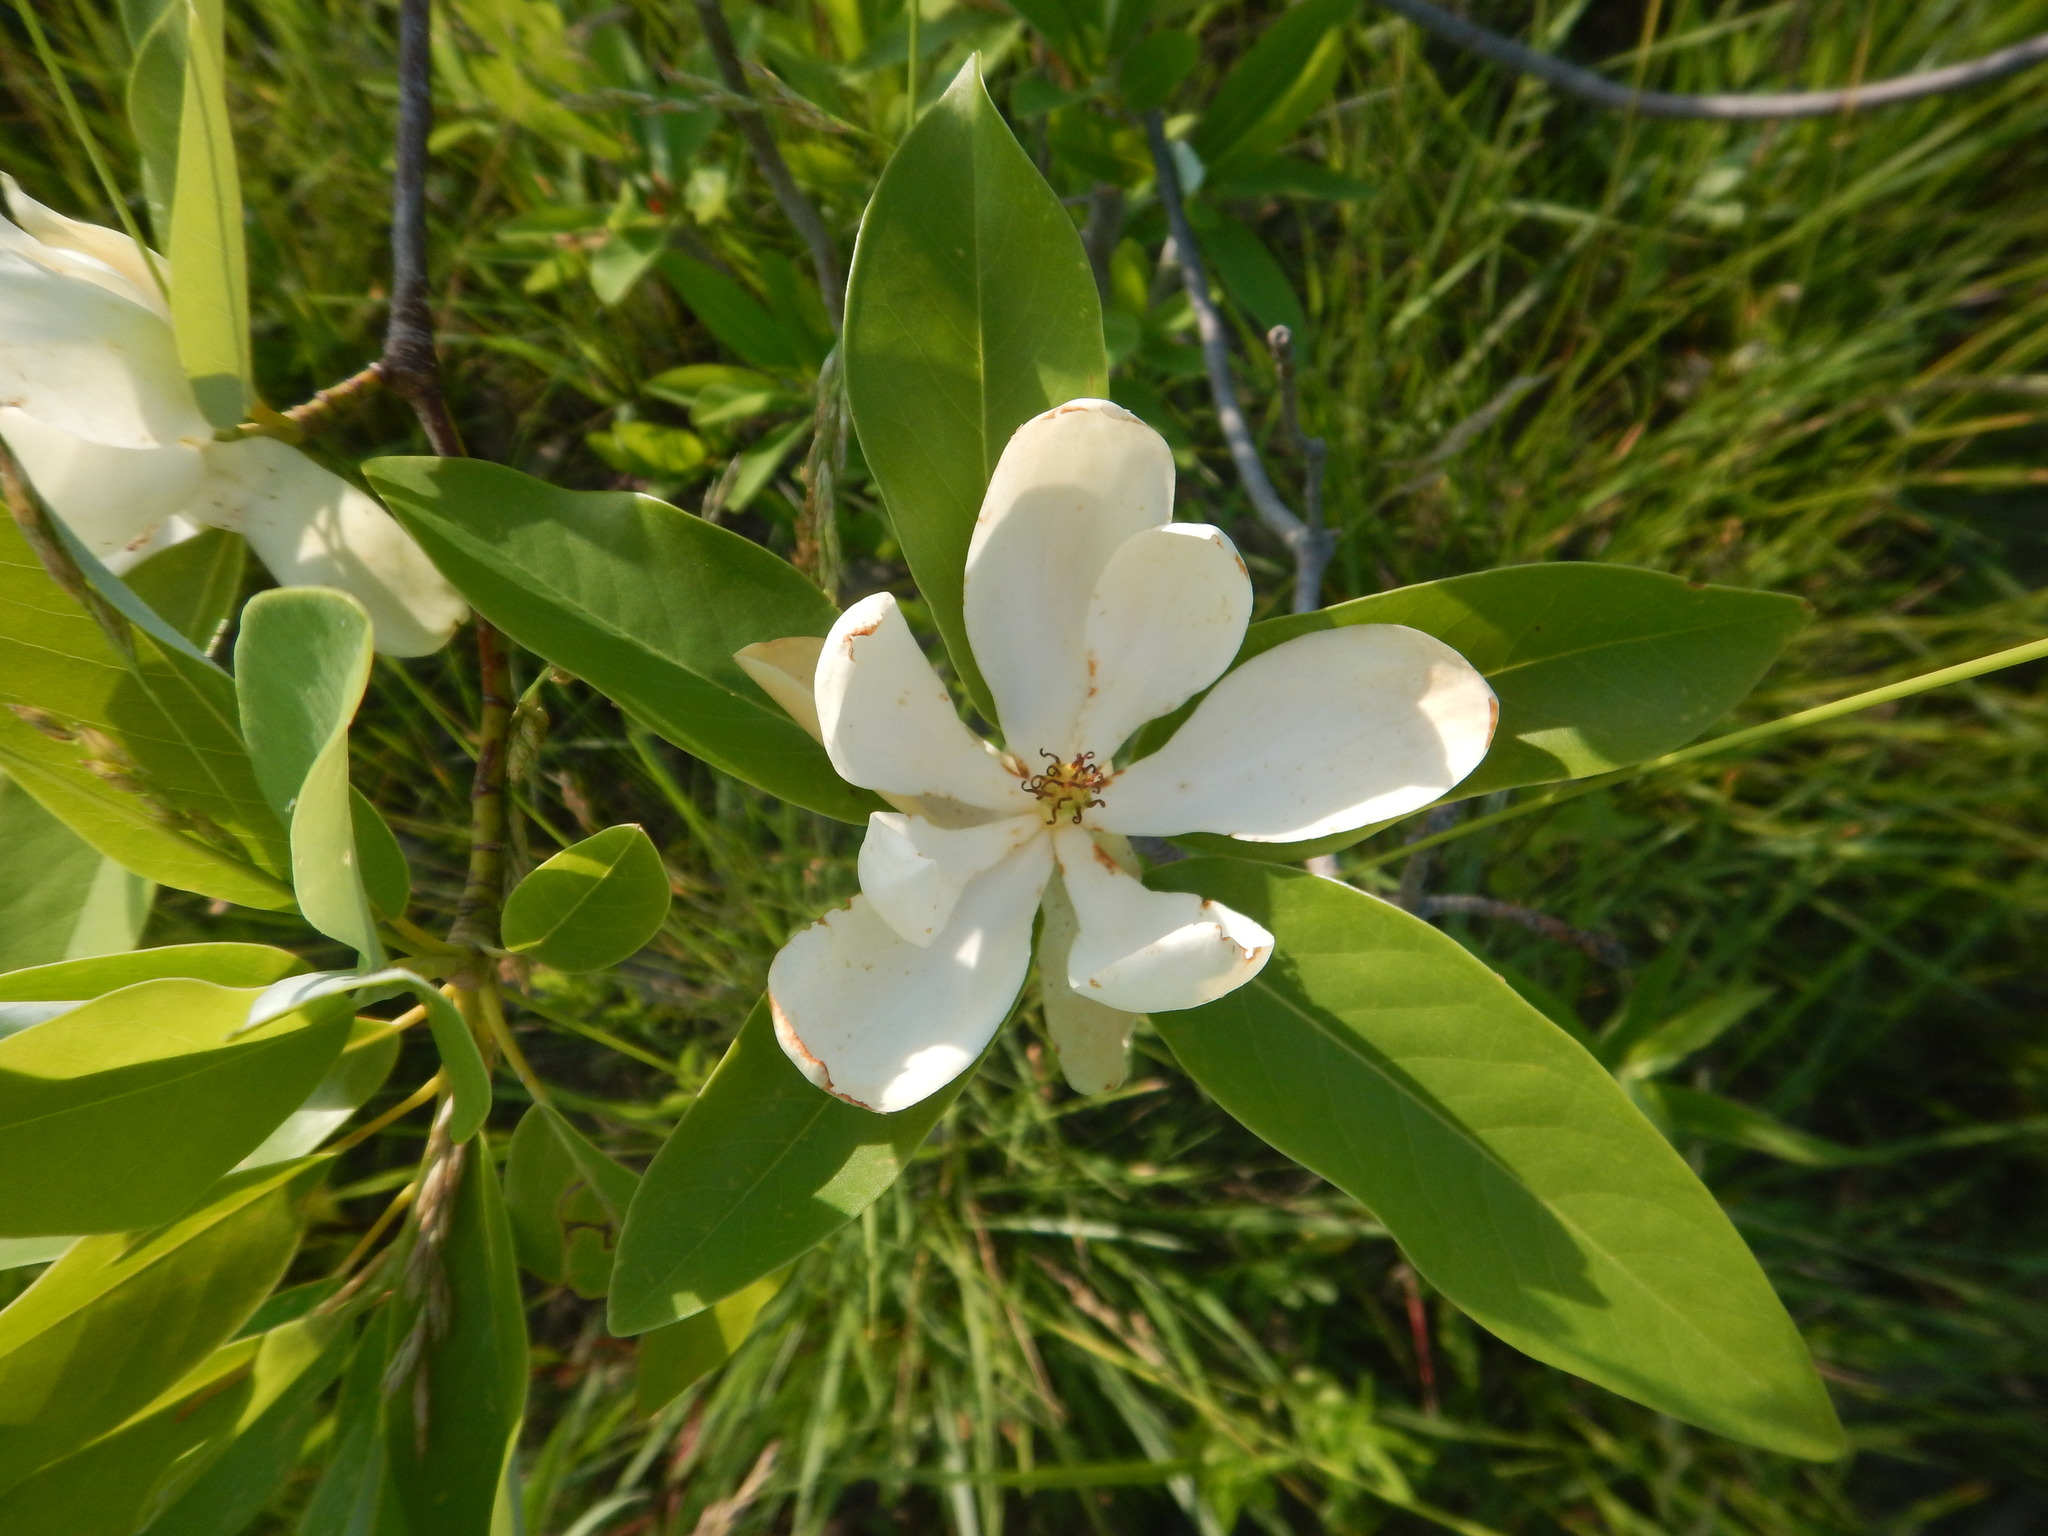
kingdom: Plantae
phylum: Tracheophyta
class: Magnoliopsida
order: Magnoliales
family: Magnoliaceae
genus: Magnolia
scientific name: Magnolia virginiana
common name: Swamp bay
